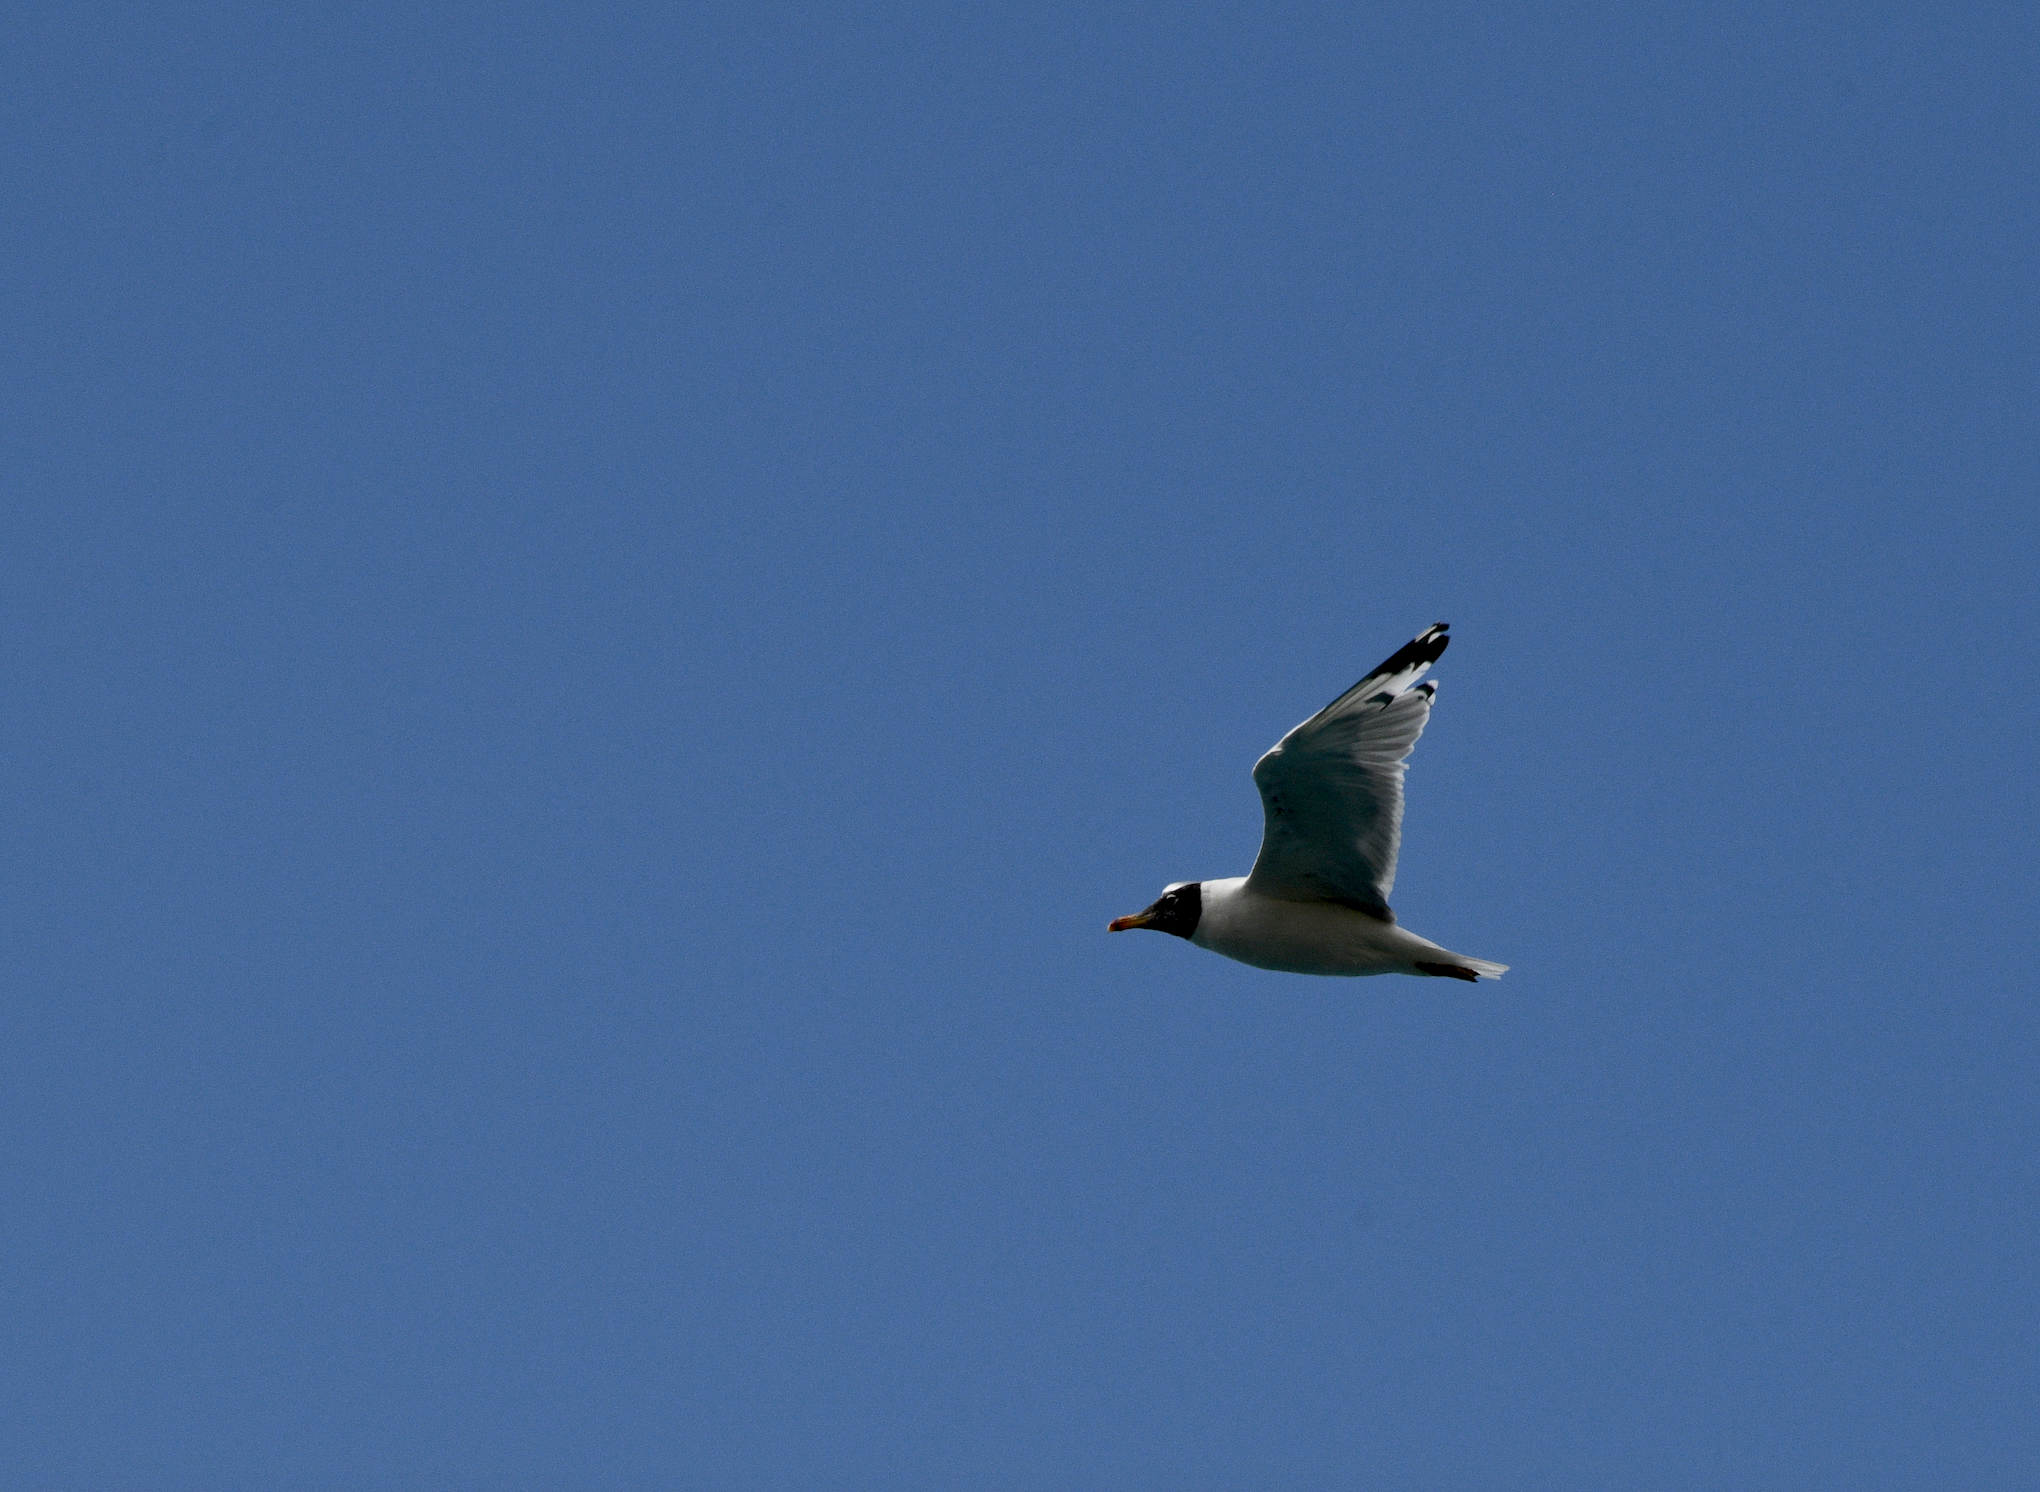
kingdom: Animalia
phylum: Chordata
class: Aves
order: Charadriiformes
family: Laridae
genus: Ichthyaetus
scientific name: Ichthyaetus ichthyaetus
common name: Pallas's gull
